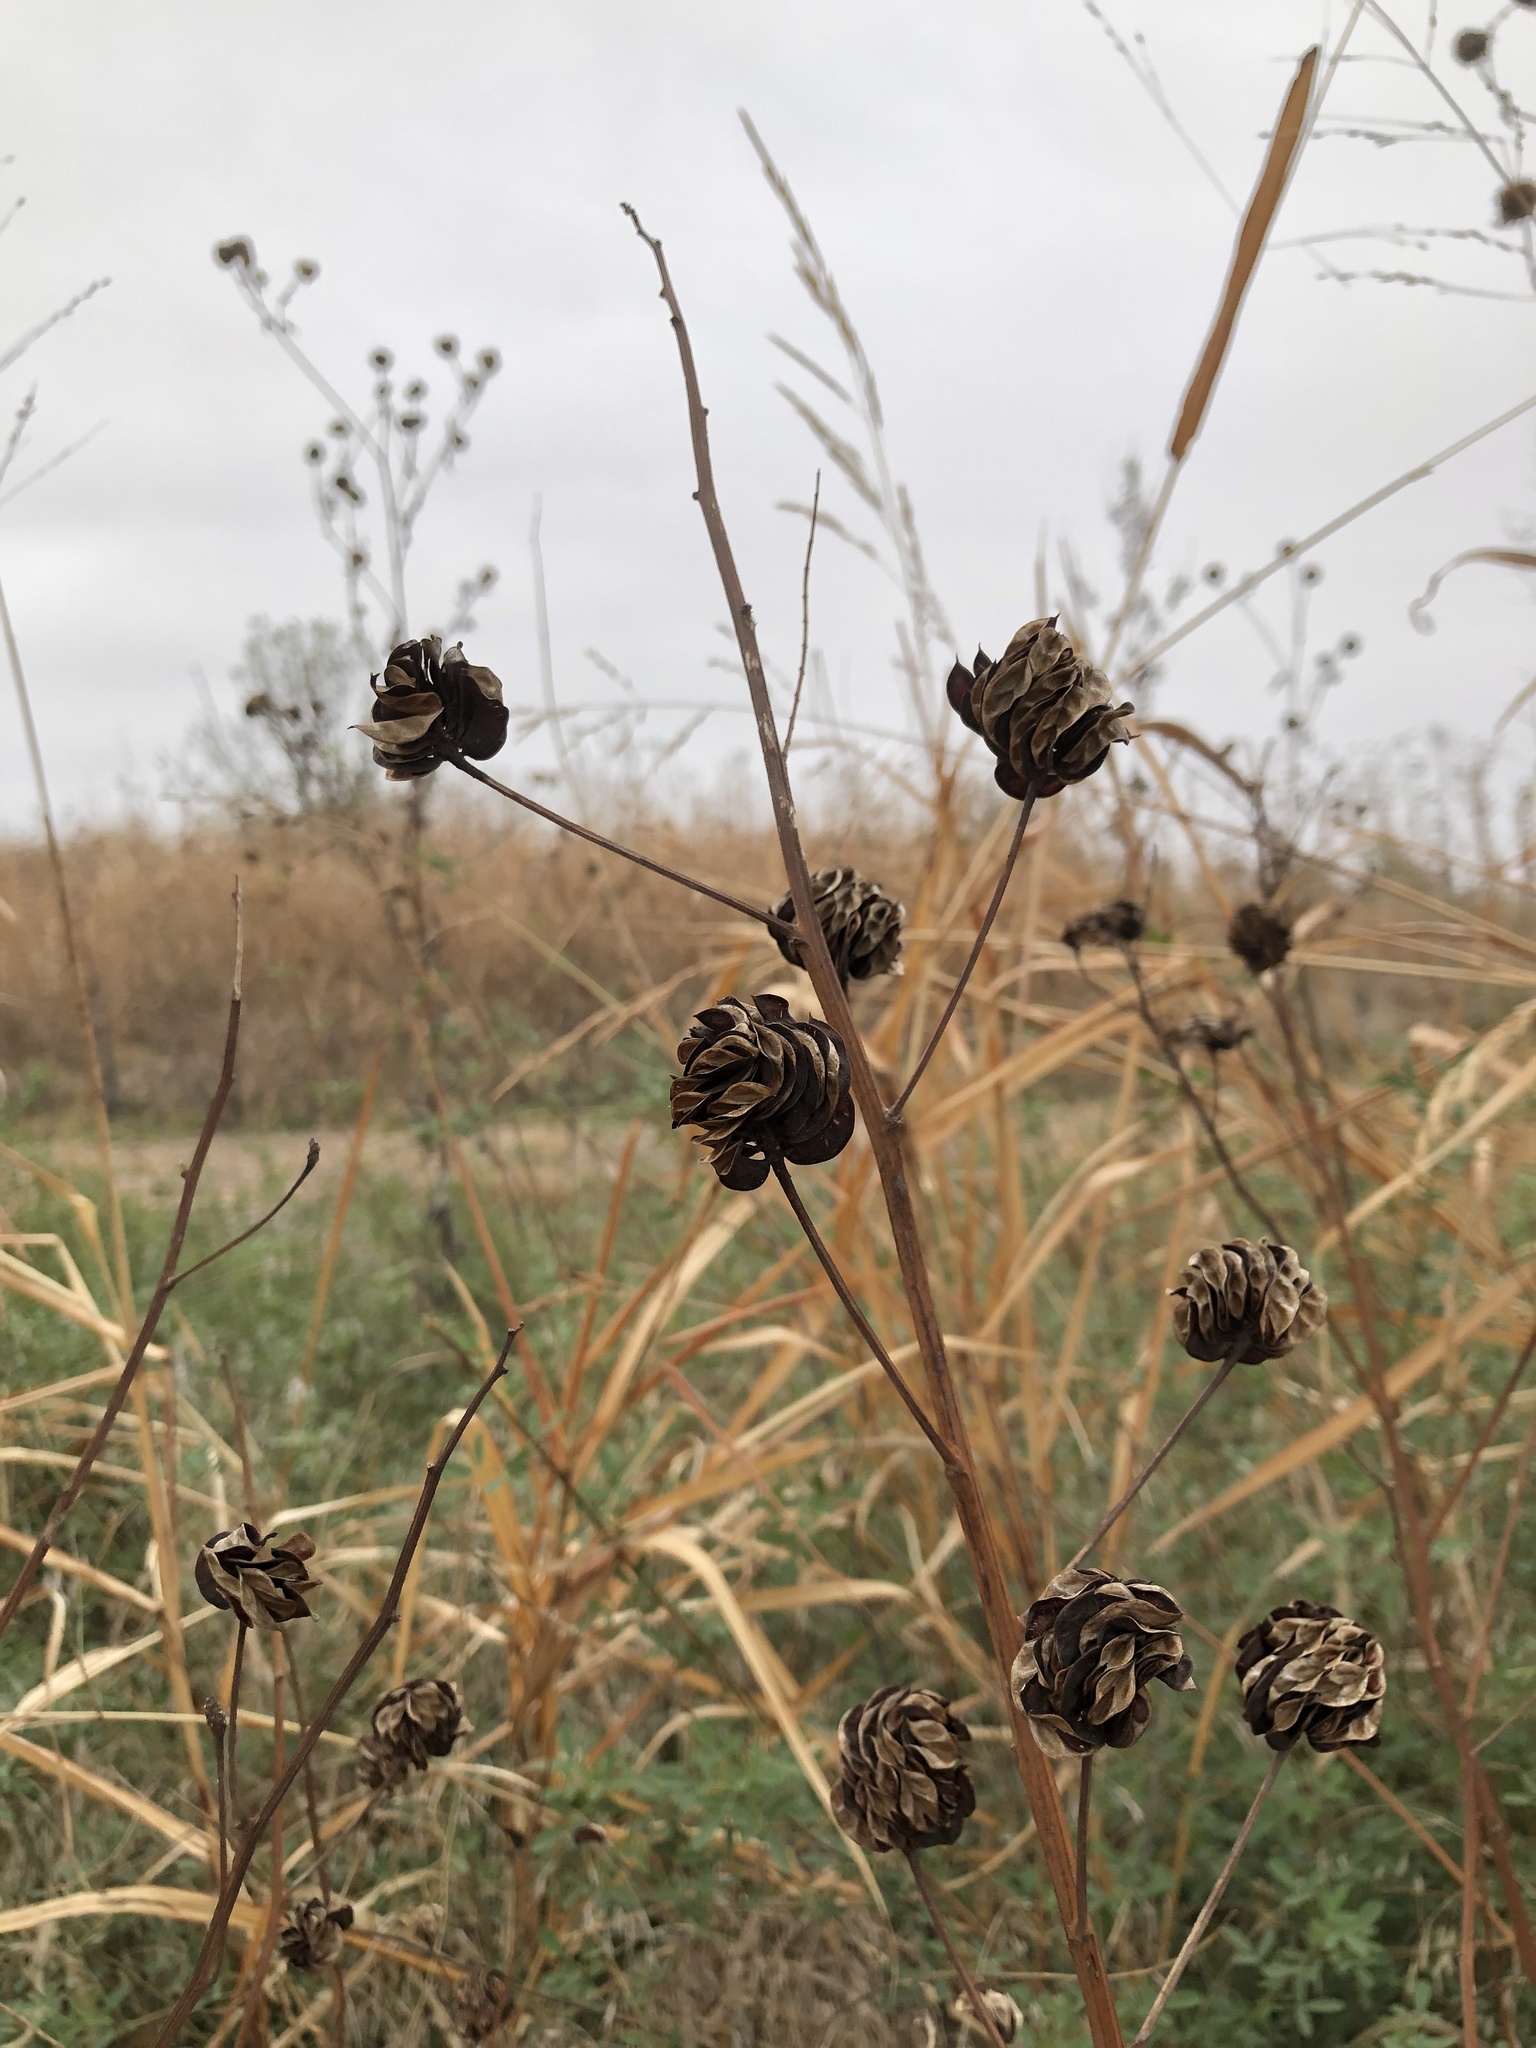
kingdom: Plantae
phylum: Tracheophyta
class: Magnoliopsida
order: Fabales
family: Fabaceae
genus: Desmanthus
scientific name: Desmanthus illinoensis
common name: Illinois bundle-flower
